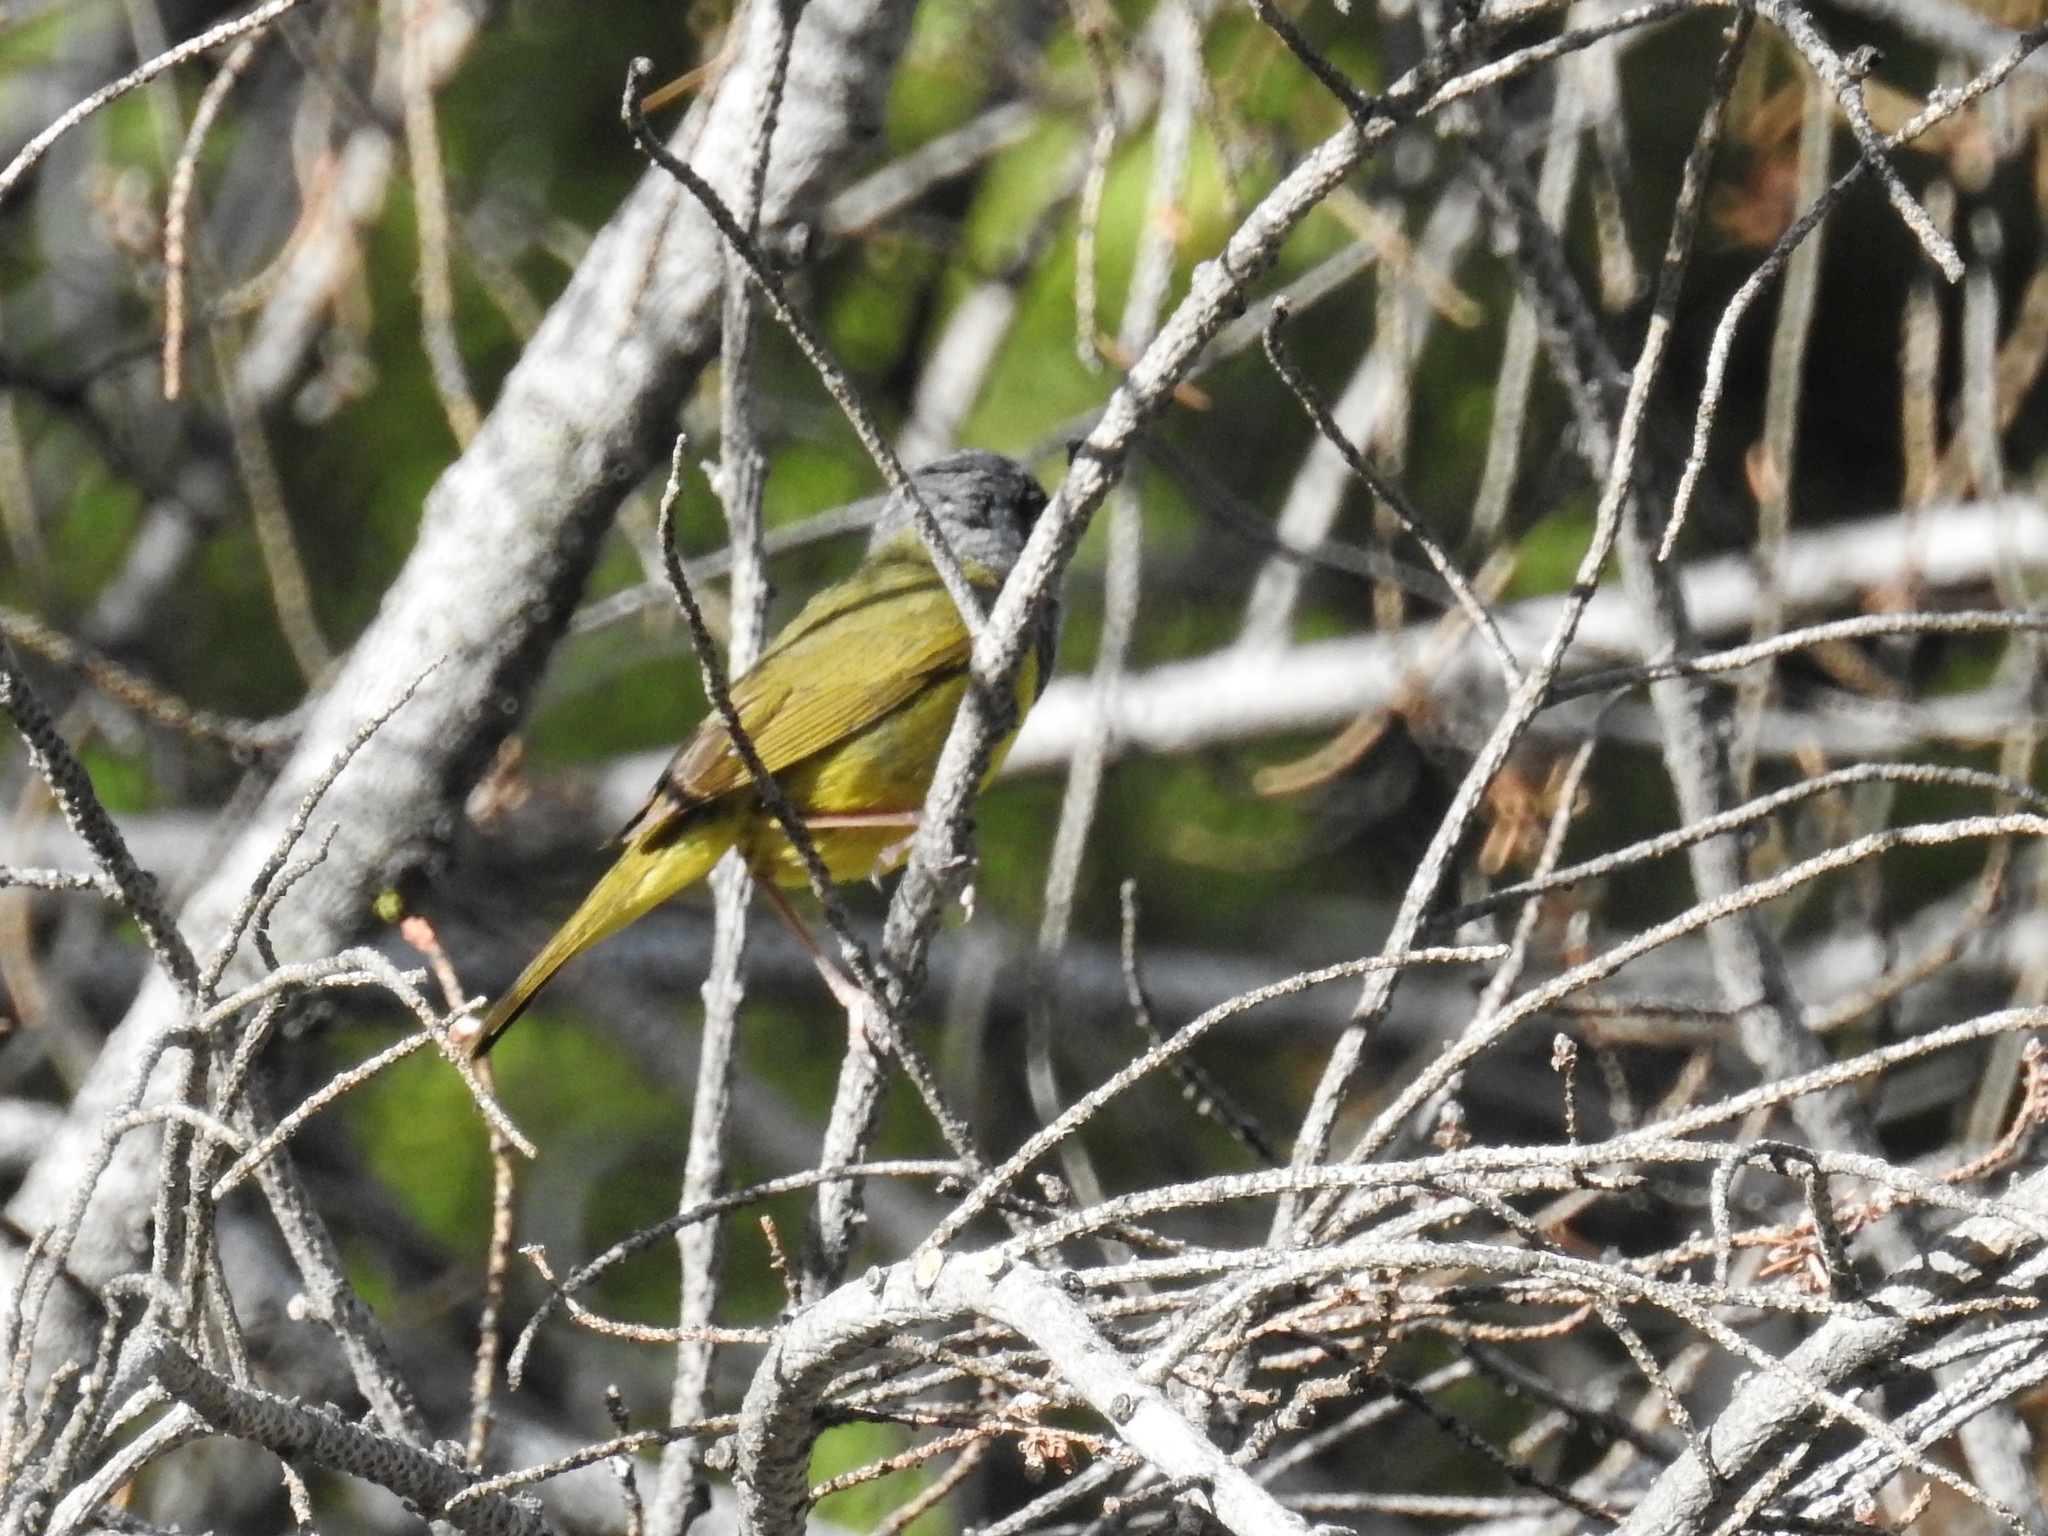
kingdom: Animalia
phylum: Chordata
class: Aves
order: Passeriformes
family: Parulidae
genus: Geothlypis
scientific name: Geothlypis tolmiei
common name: Macgillivray's warbler
